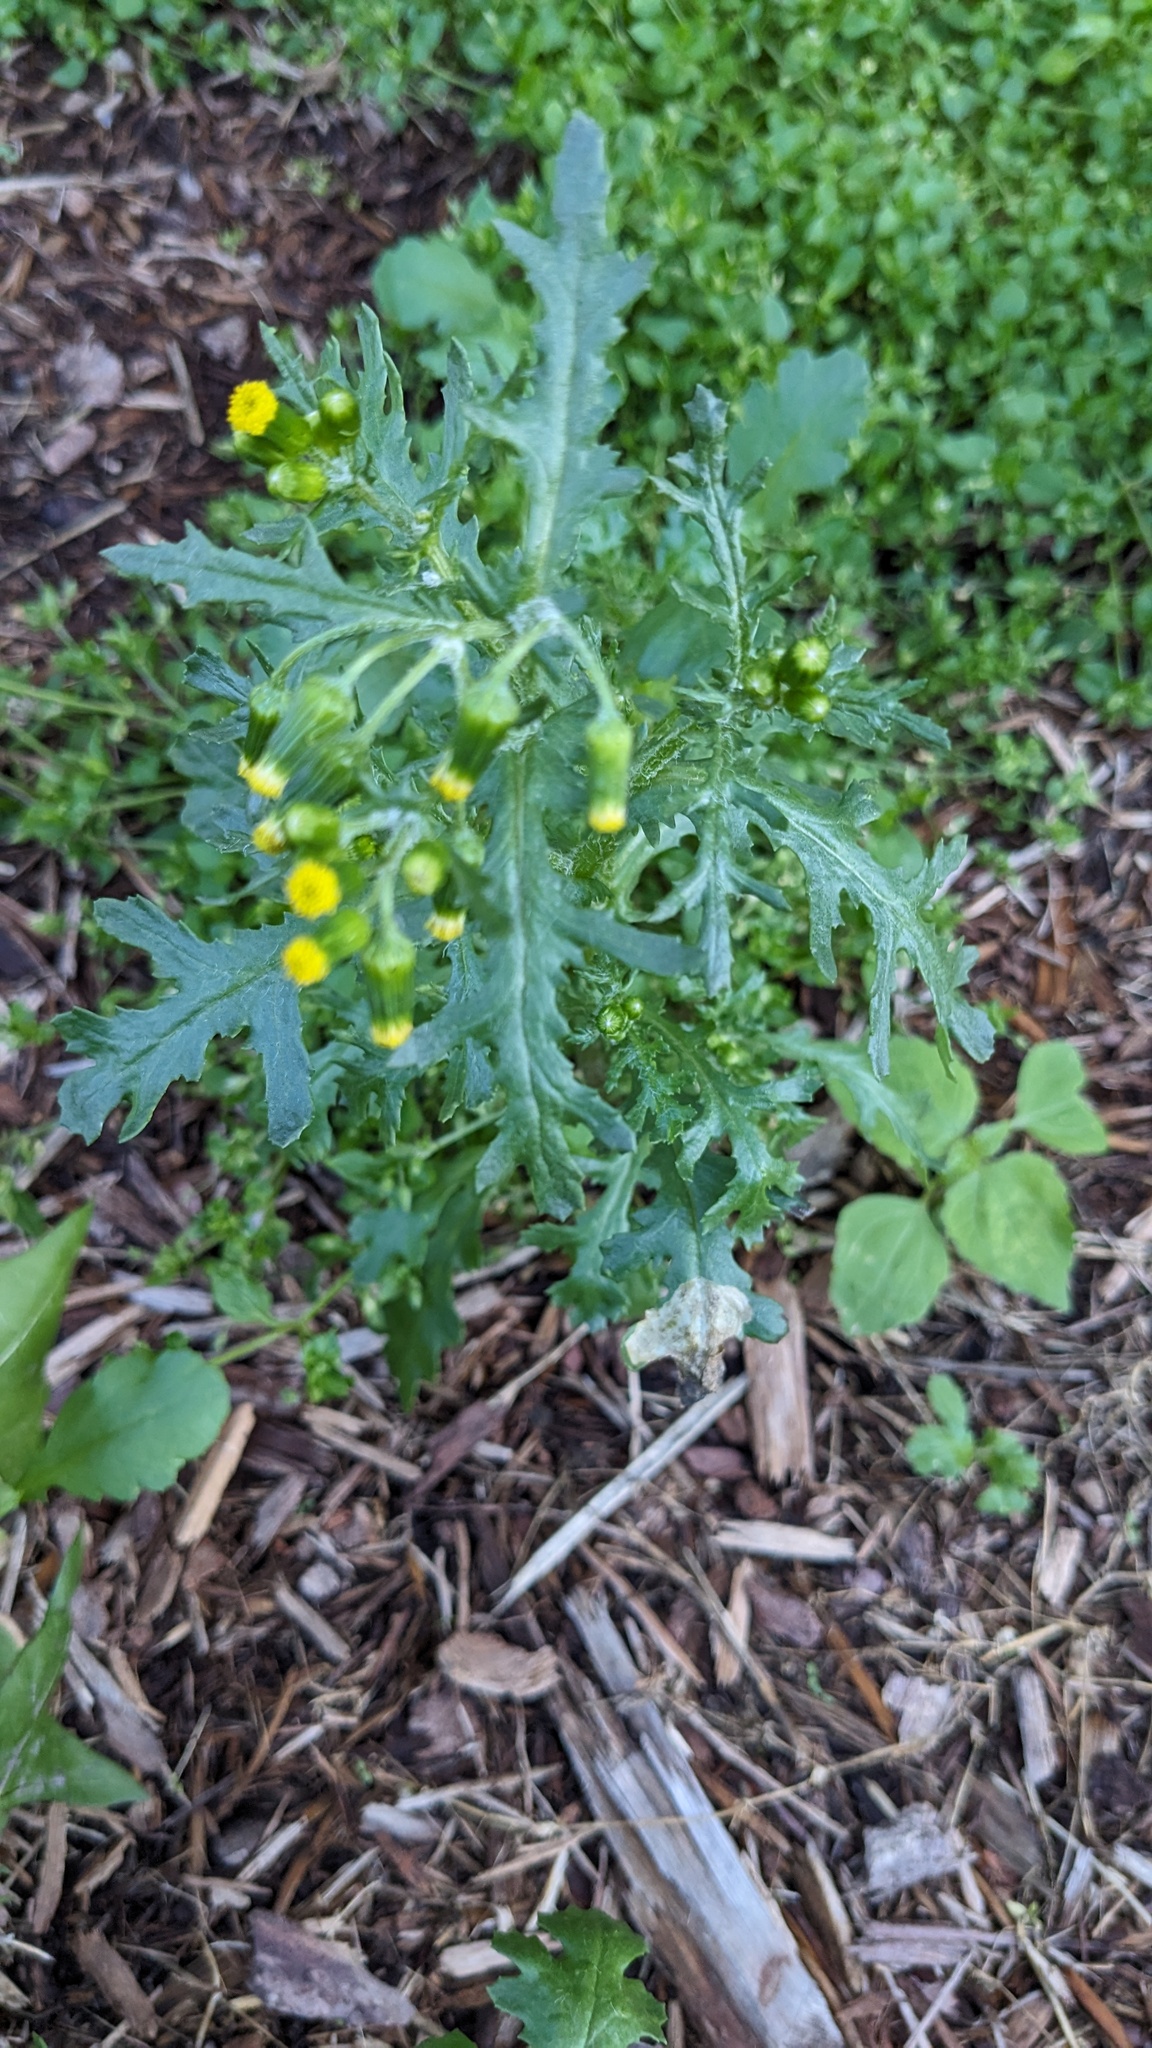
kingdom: Plantae
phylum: Tracheophyta
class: Magnoliopsida
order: Asterales
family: Asteraceae
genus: Senecio
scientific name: Senecio vulgaris
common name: Old-man-in-the-spring
